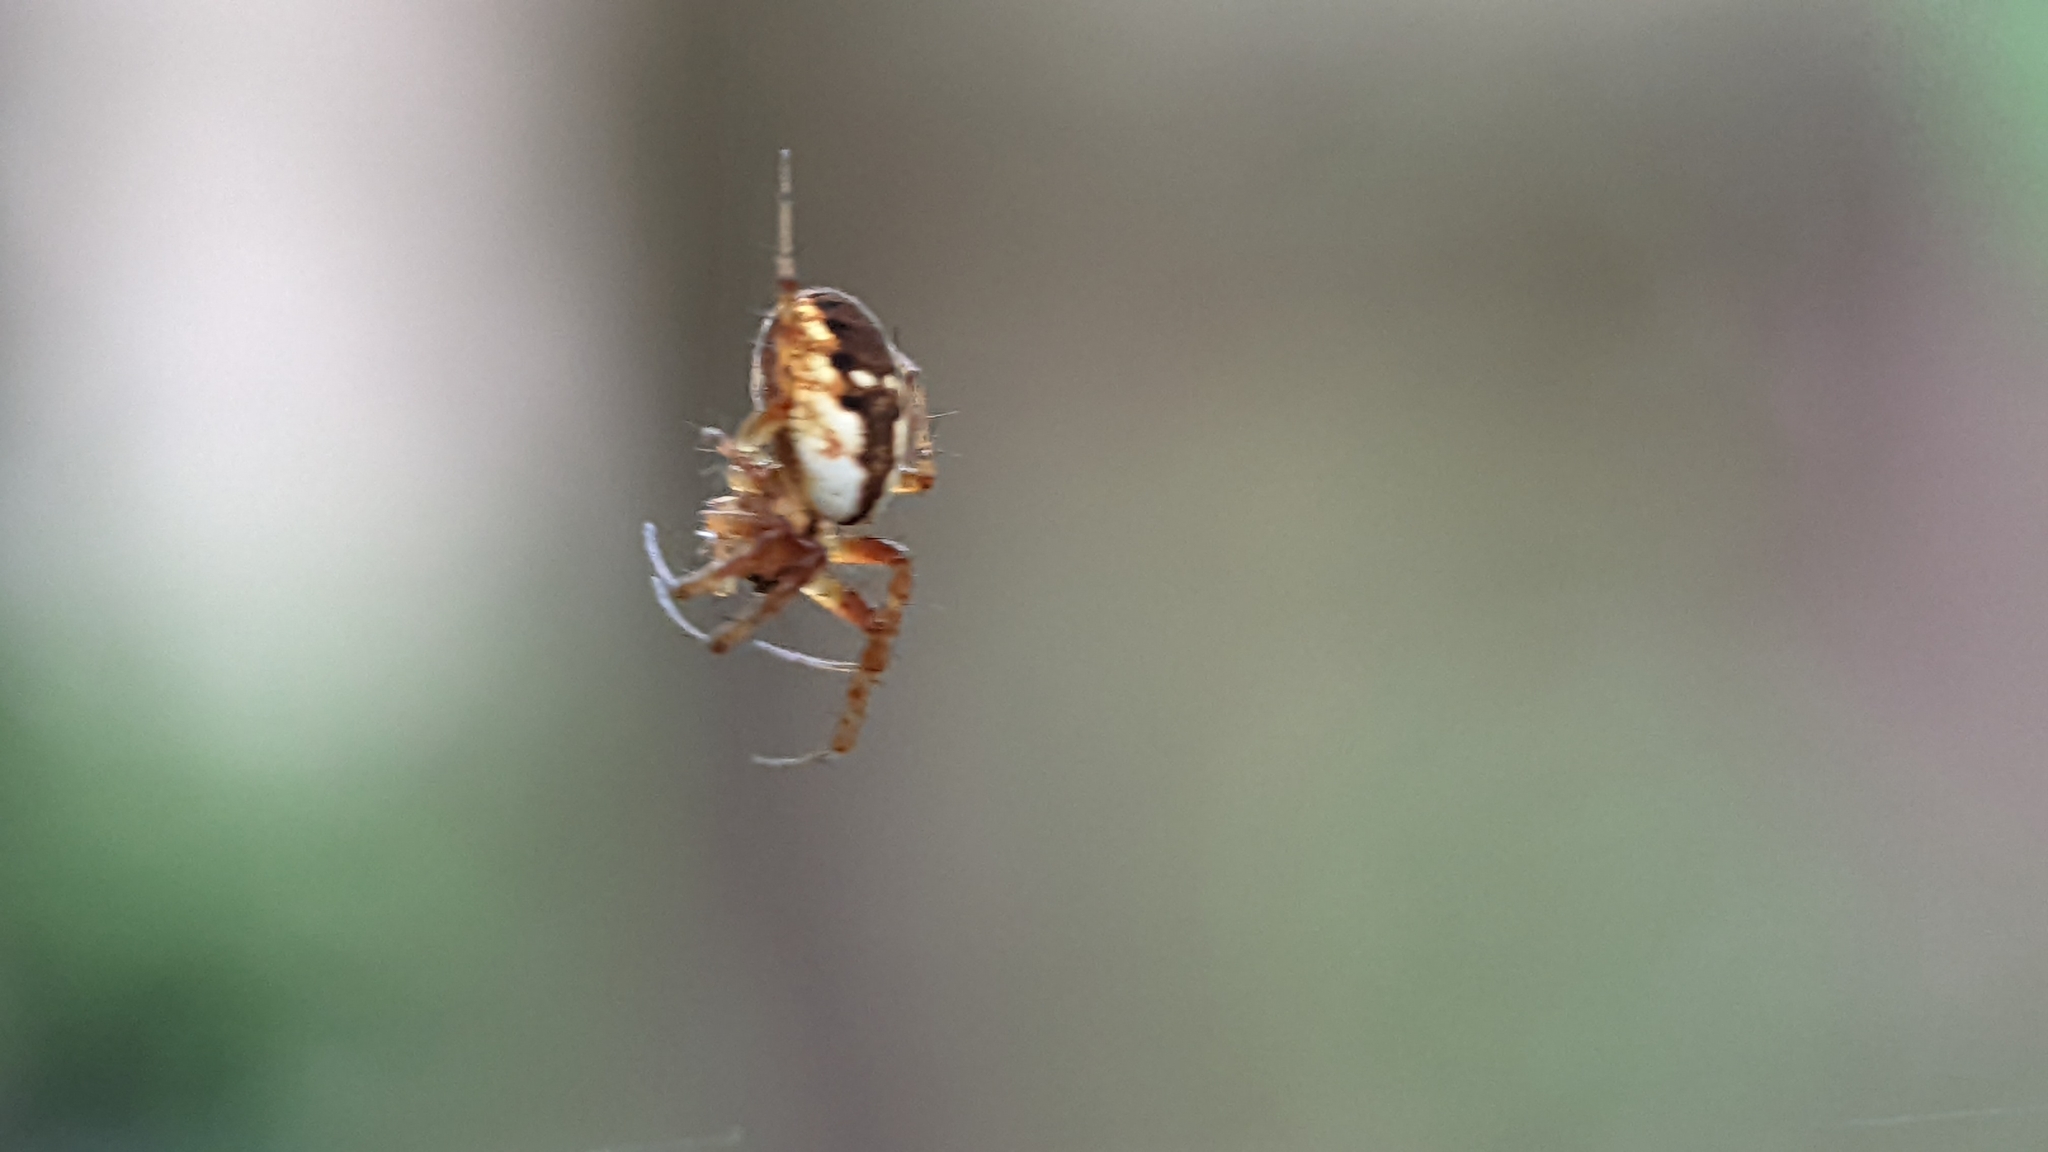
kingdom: Animalia
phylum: Arthropoda
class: Arachnida
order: Araneae
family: Araneidae
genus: Mangora
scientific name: Mangora placida
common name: Tuft-legged orbweaver
